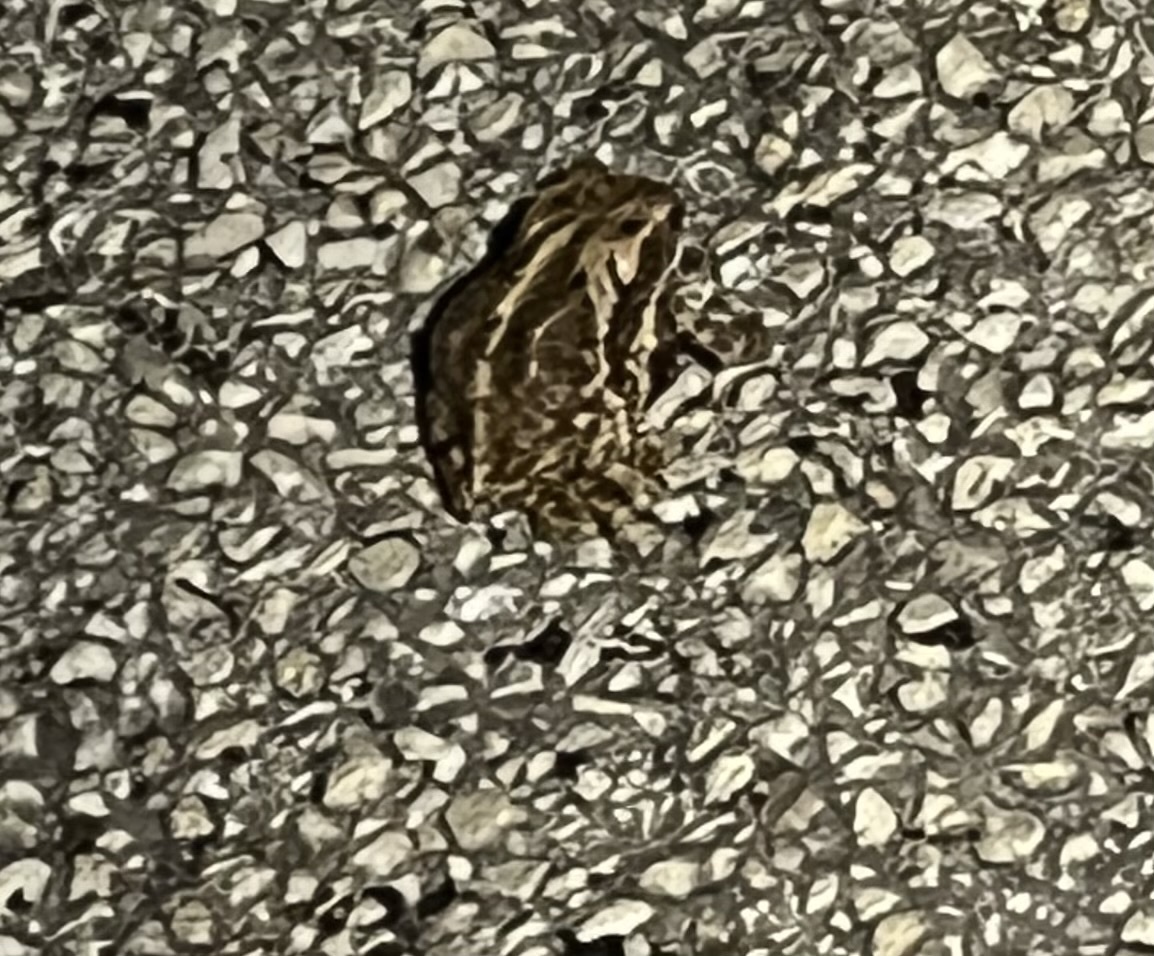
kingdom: Animalia
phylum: Chordata
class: Amphibia
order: Anura
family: Bufonidae
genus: Incilius
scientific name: Incilius nebulifer
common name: Gulf coast toad
